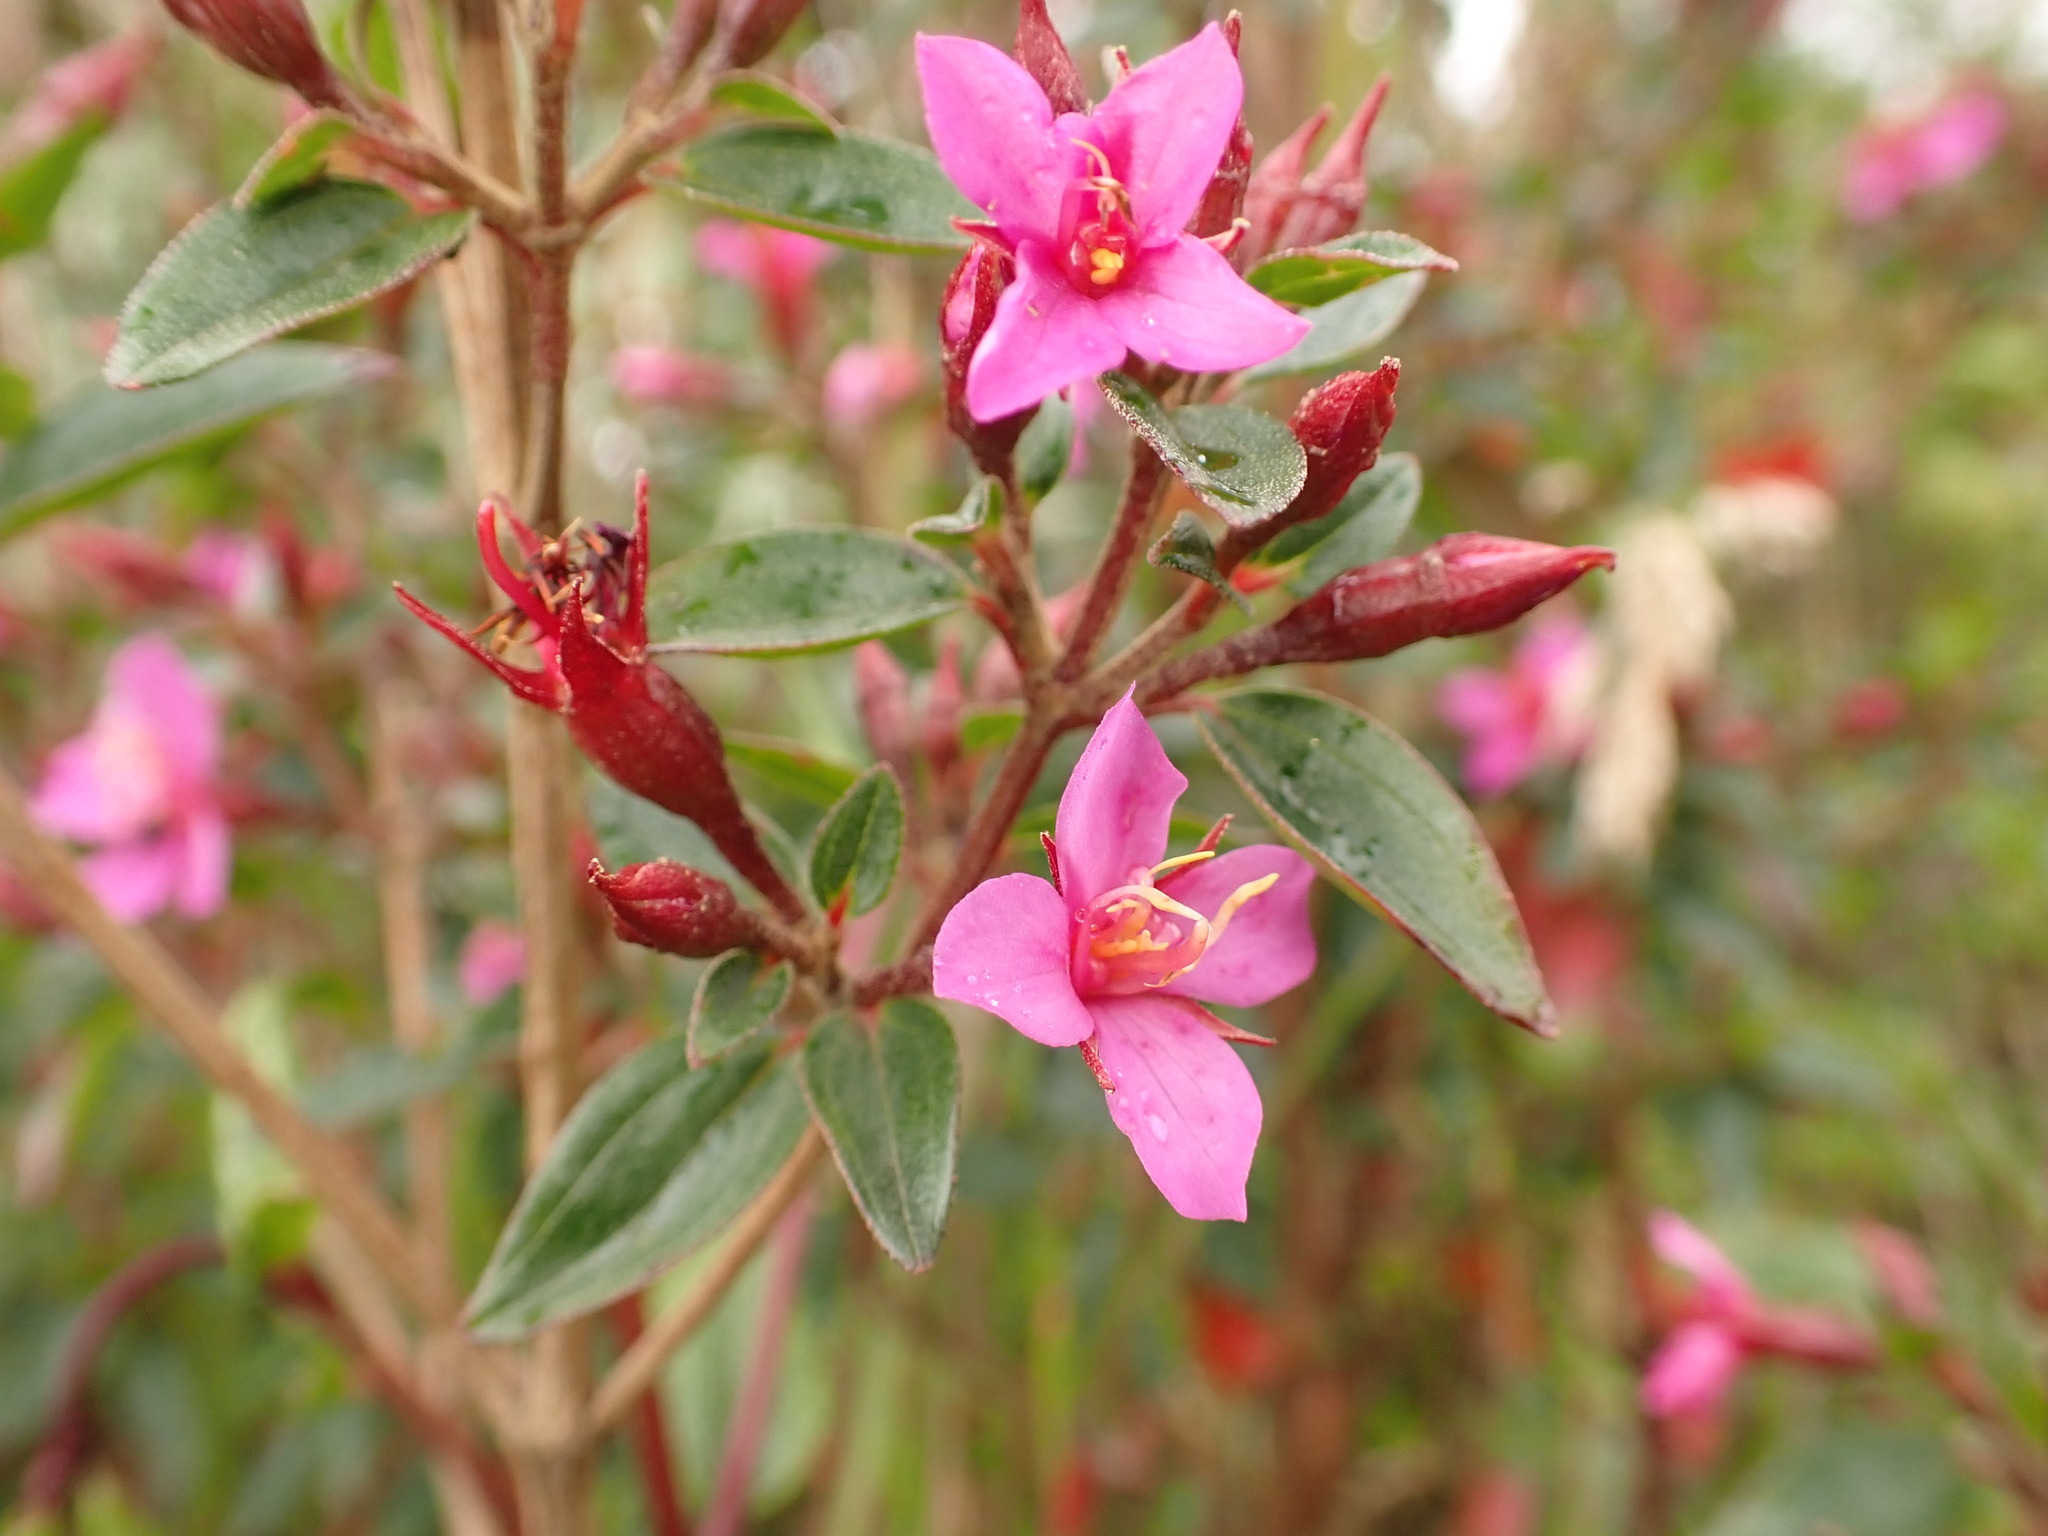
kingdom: Plantae
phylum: Tracheophyta
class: Magnoliopsida
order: Myrtales
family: Melastomataceae
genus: Monochaetum
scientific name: Monochaetum myrtoideum
